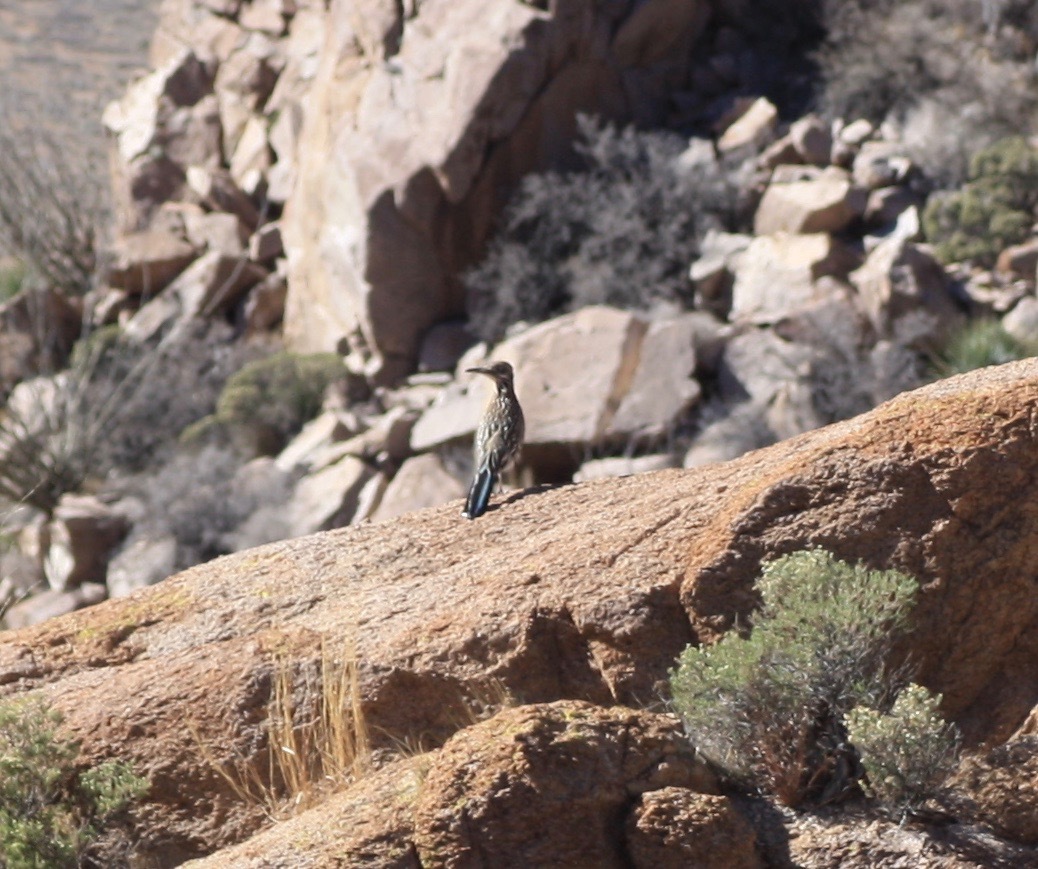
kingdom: Animalia
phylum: Chordata
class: Aves
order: Cuculiformes
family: Cuculidae
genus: Geococcyx
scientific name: Geococcyx californianus
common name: Greater roadrunner
